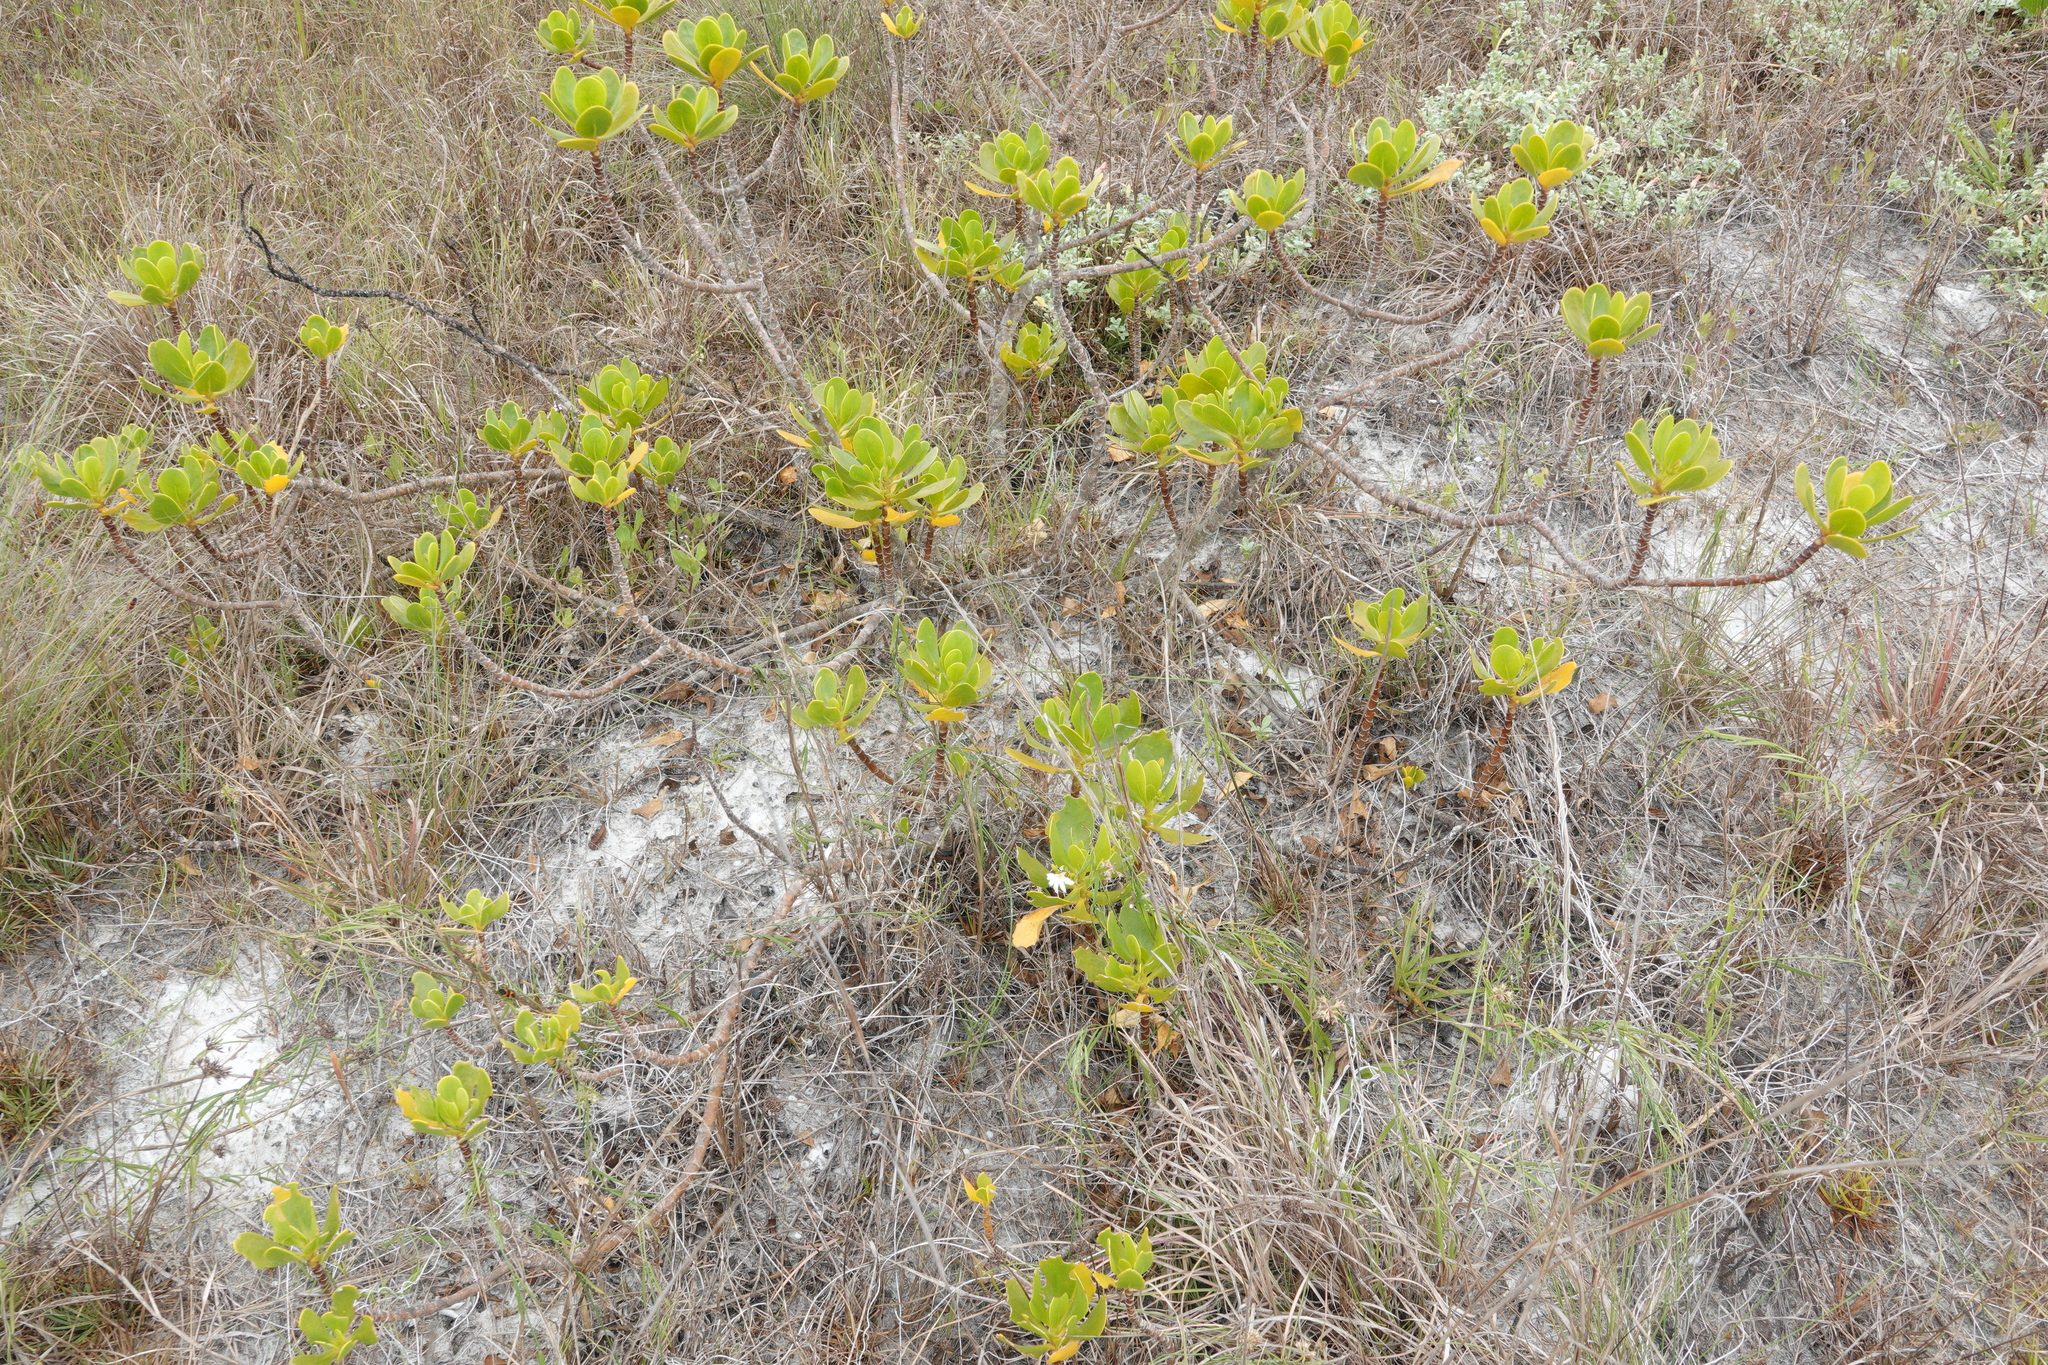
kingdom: Plantae
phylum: Tracheophyta
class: Magnoliopsida
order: Asterales
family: Goodeniaceae
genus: Scaevola
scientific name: Scaevola plumieri
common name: Gull feed
